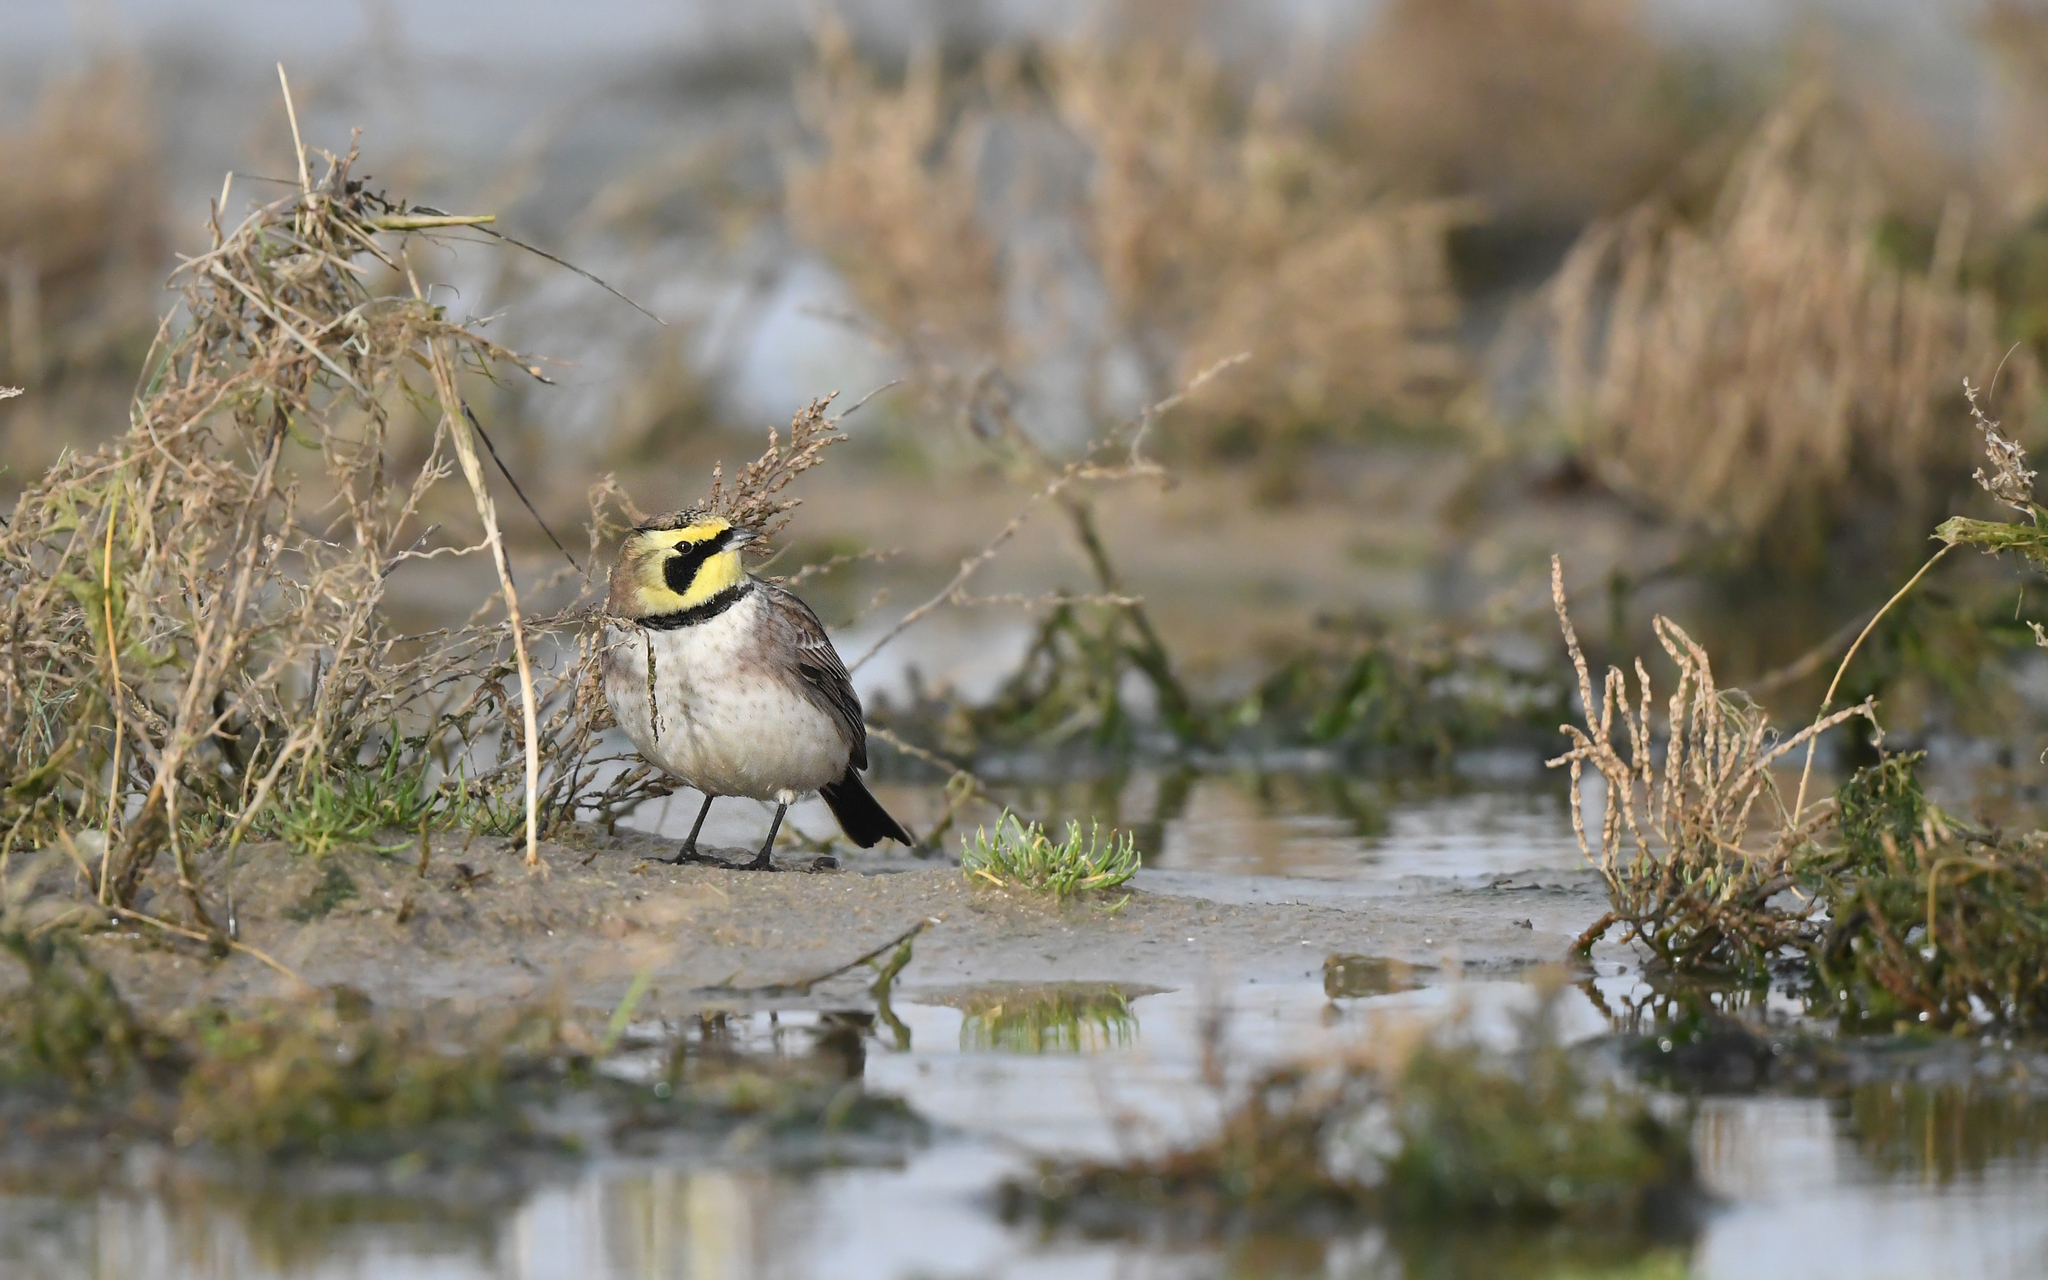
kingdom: Animalia
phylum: Chordata
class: Aves
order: Passeriformes
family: Alaudidae
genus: Eremophila
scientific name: Eremophila alpestris
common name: Horned lark
